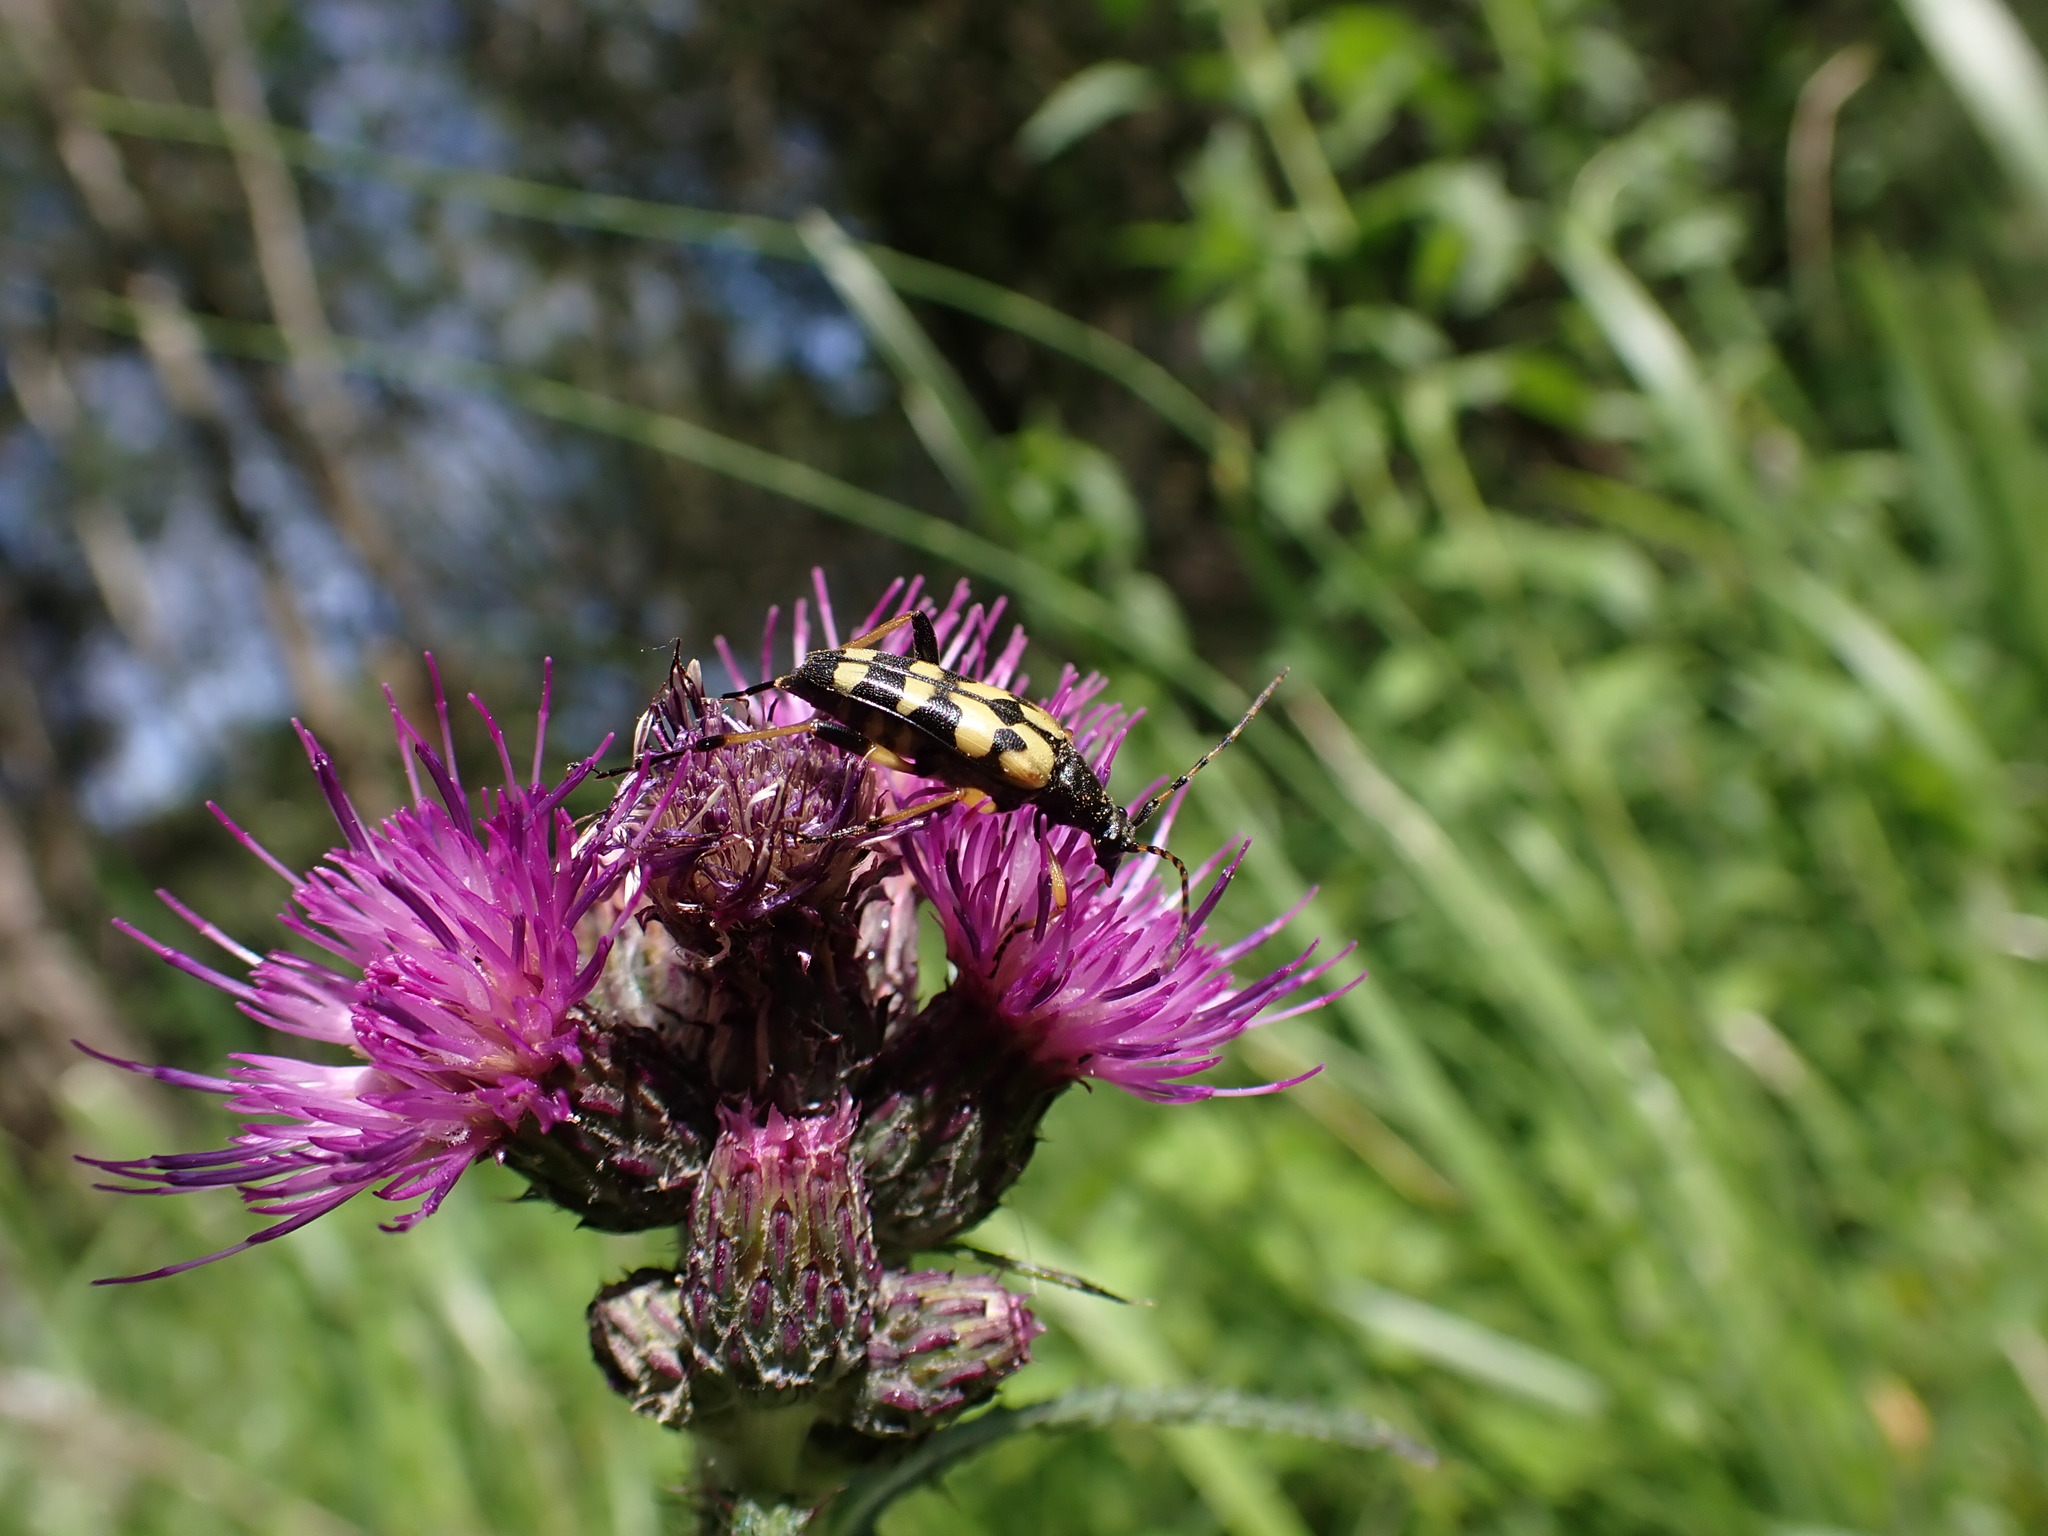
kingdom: Animalia
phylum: Arthropoda
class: Insecta
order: Coleoptera
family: Cerambycidae
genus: Rutpela
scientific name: Rutpela maculata
